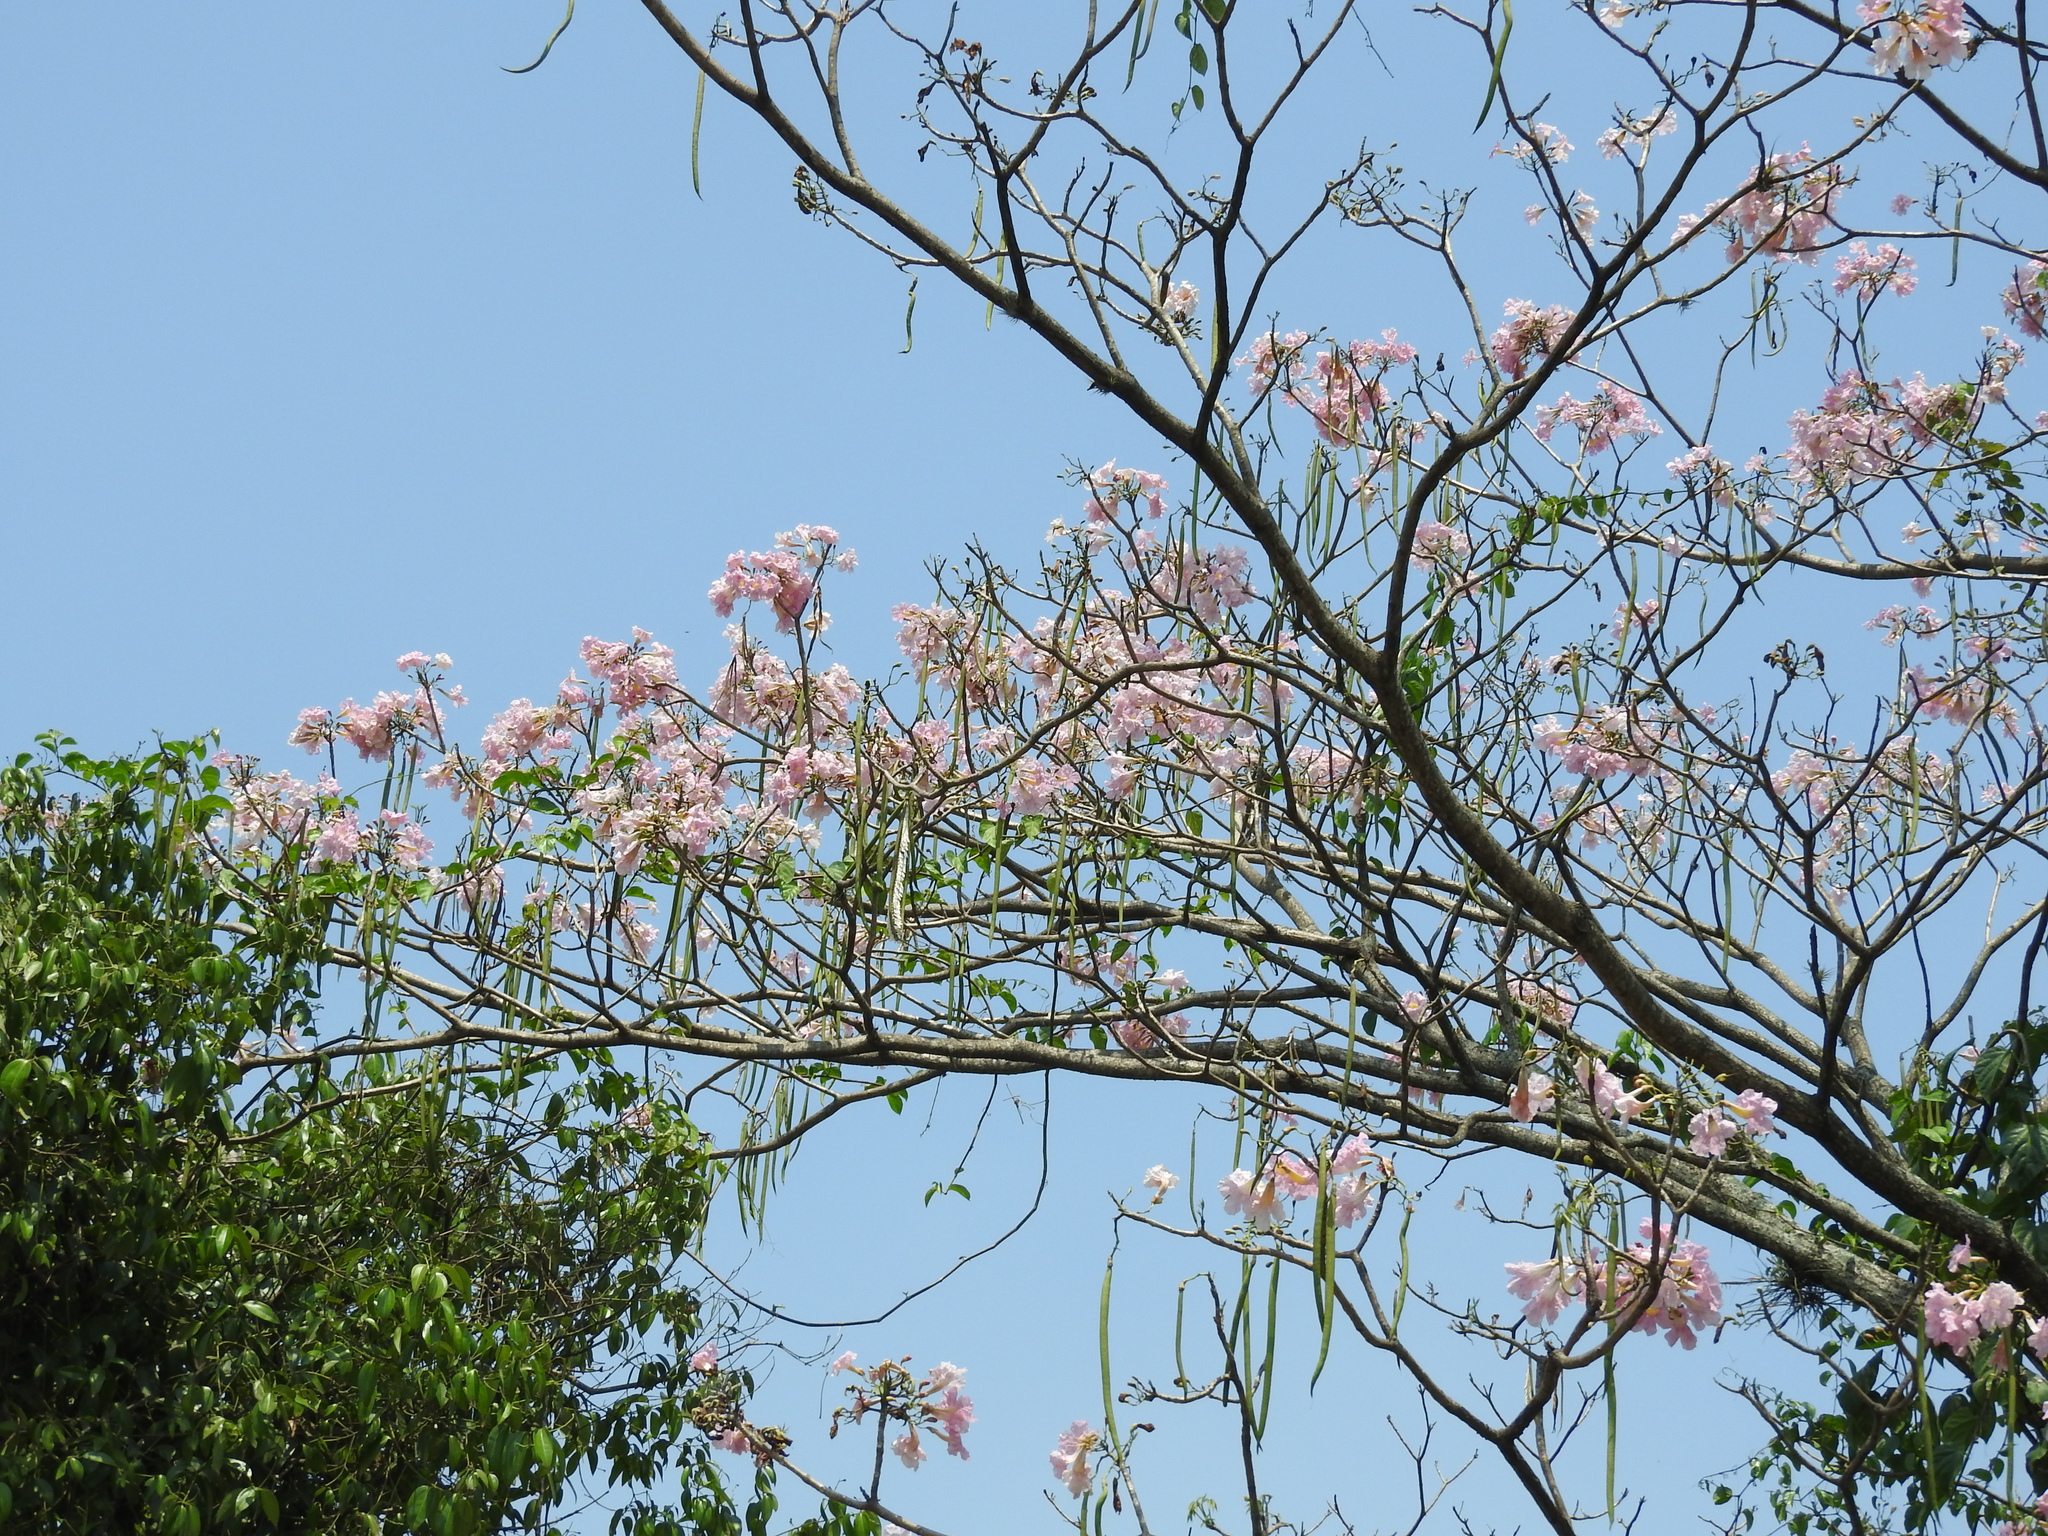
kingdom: Plantae
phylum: Tracheophyta
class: Magnoliopsida
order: Lamiales
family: Bignoniaceae
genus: Tabebuia
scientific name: Tabebuia rosea
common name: Pink poui
